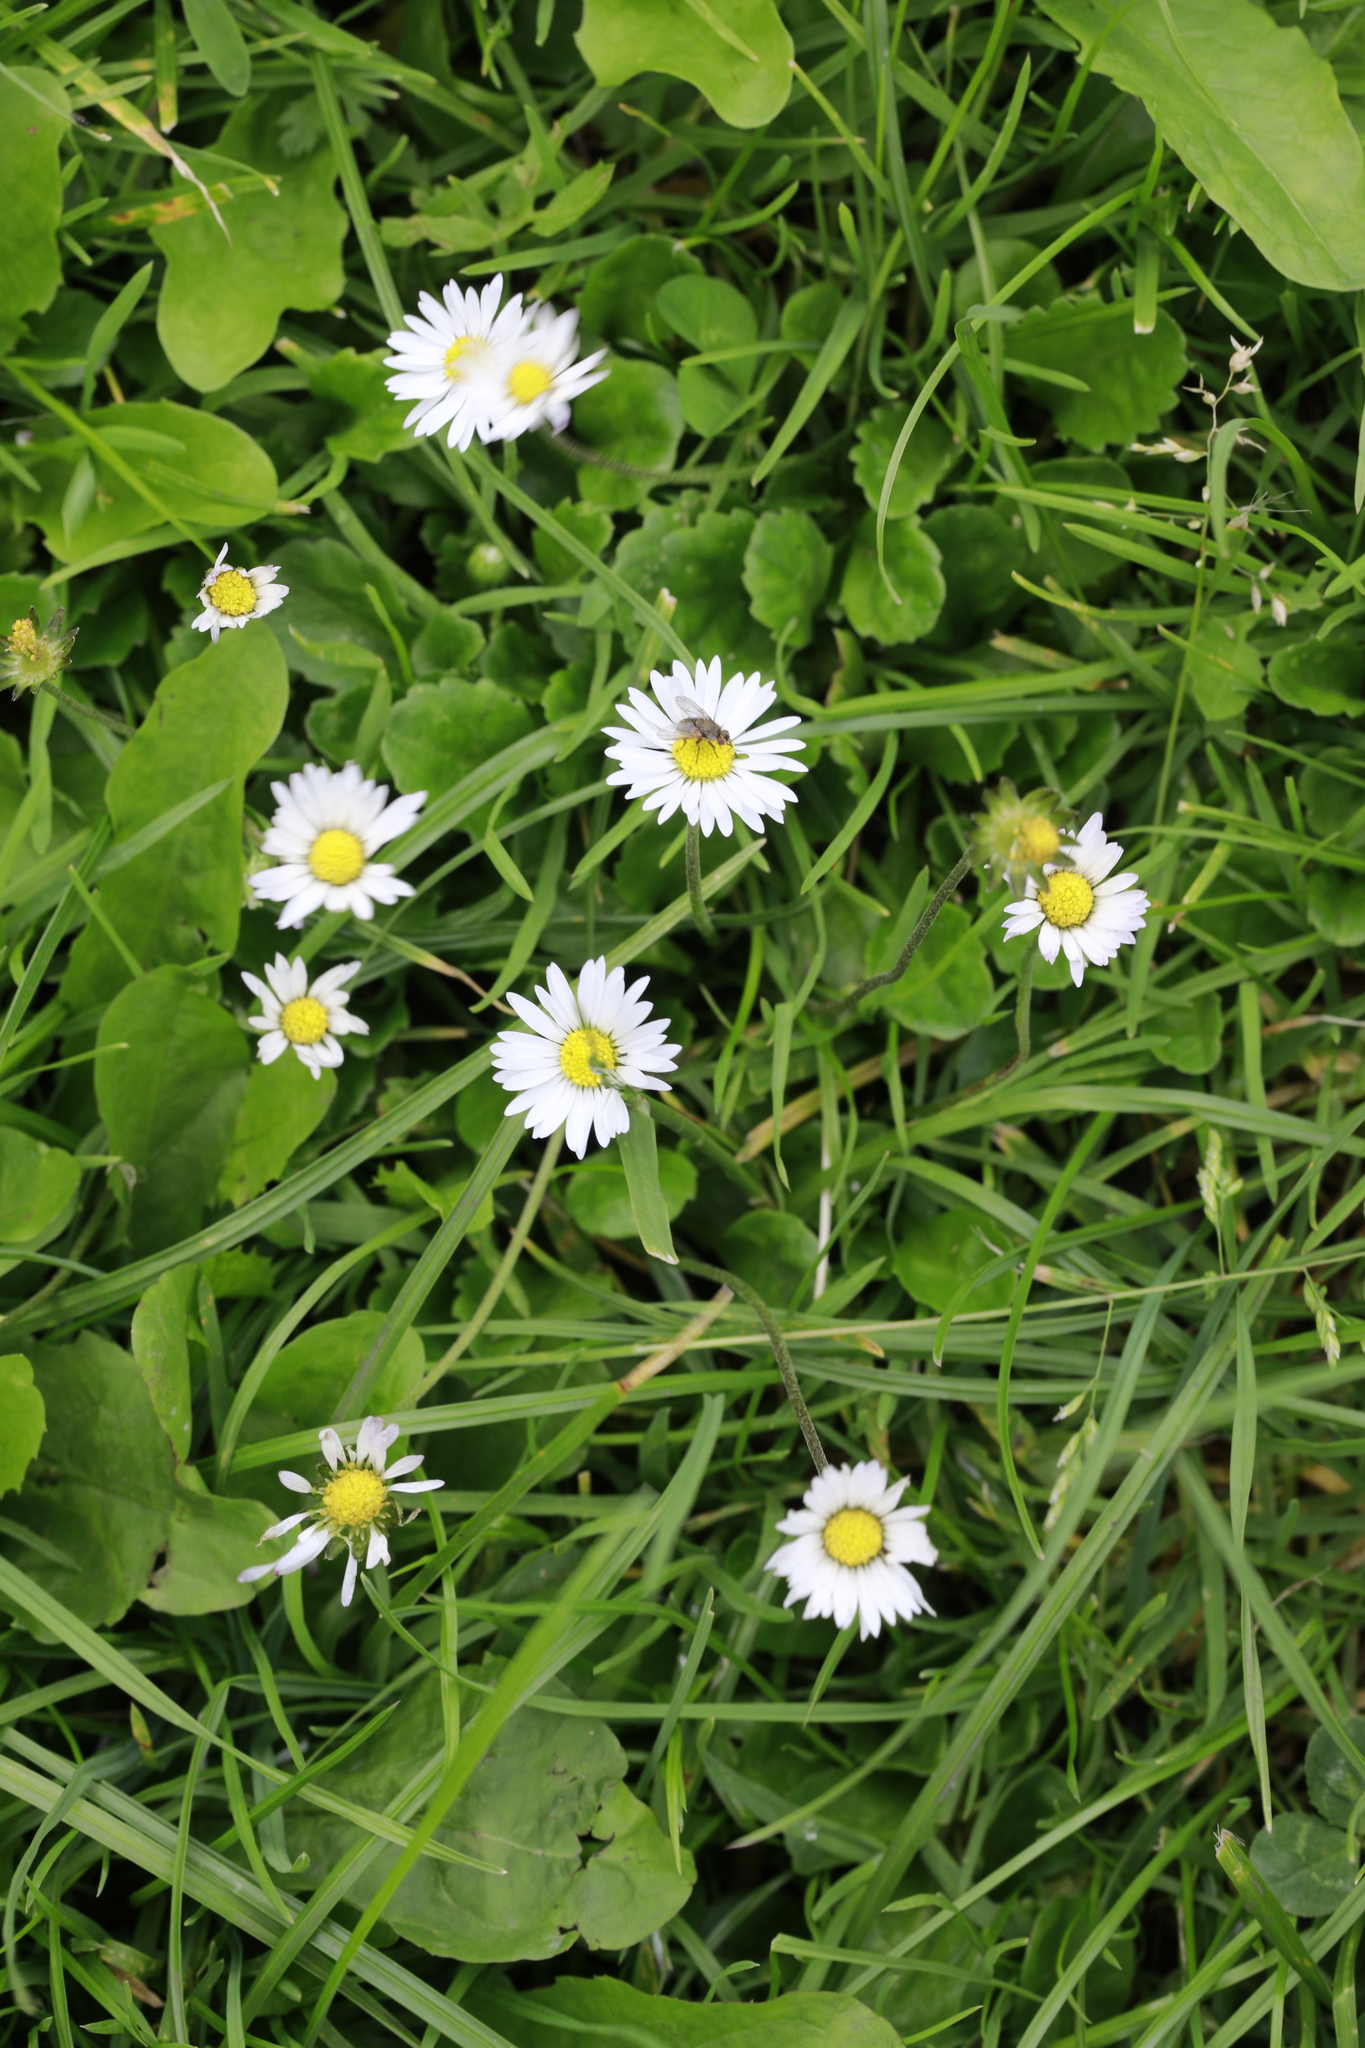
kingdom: Plantae
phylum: Tracheophyta
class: Magnoliopsida
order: Asterales
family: Asteraceae
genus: Bellis
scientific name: Bellis perennis
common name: Lawndaisy
